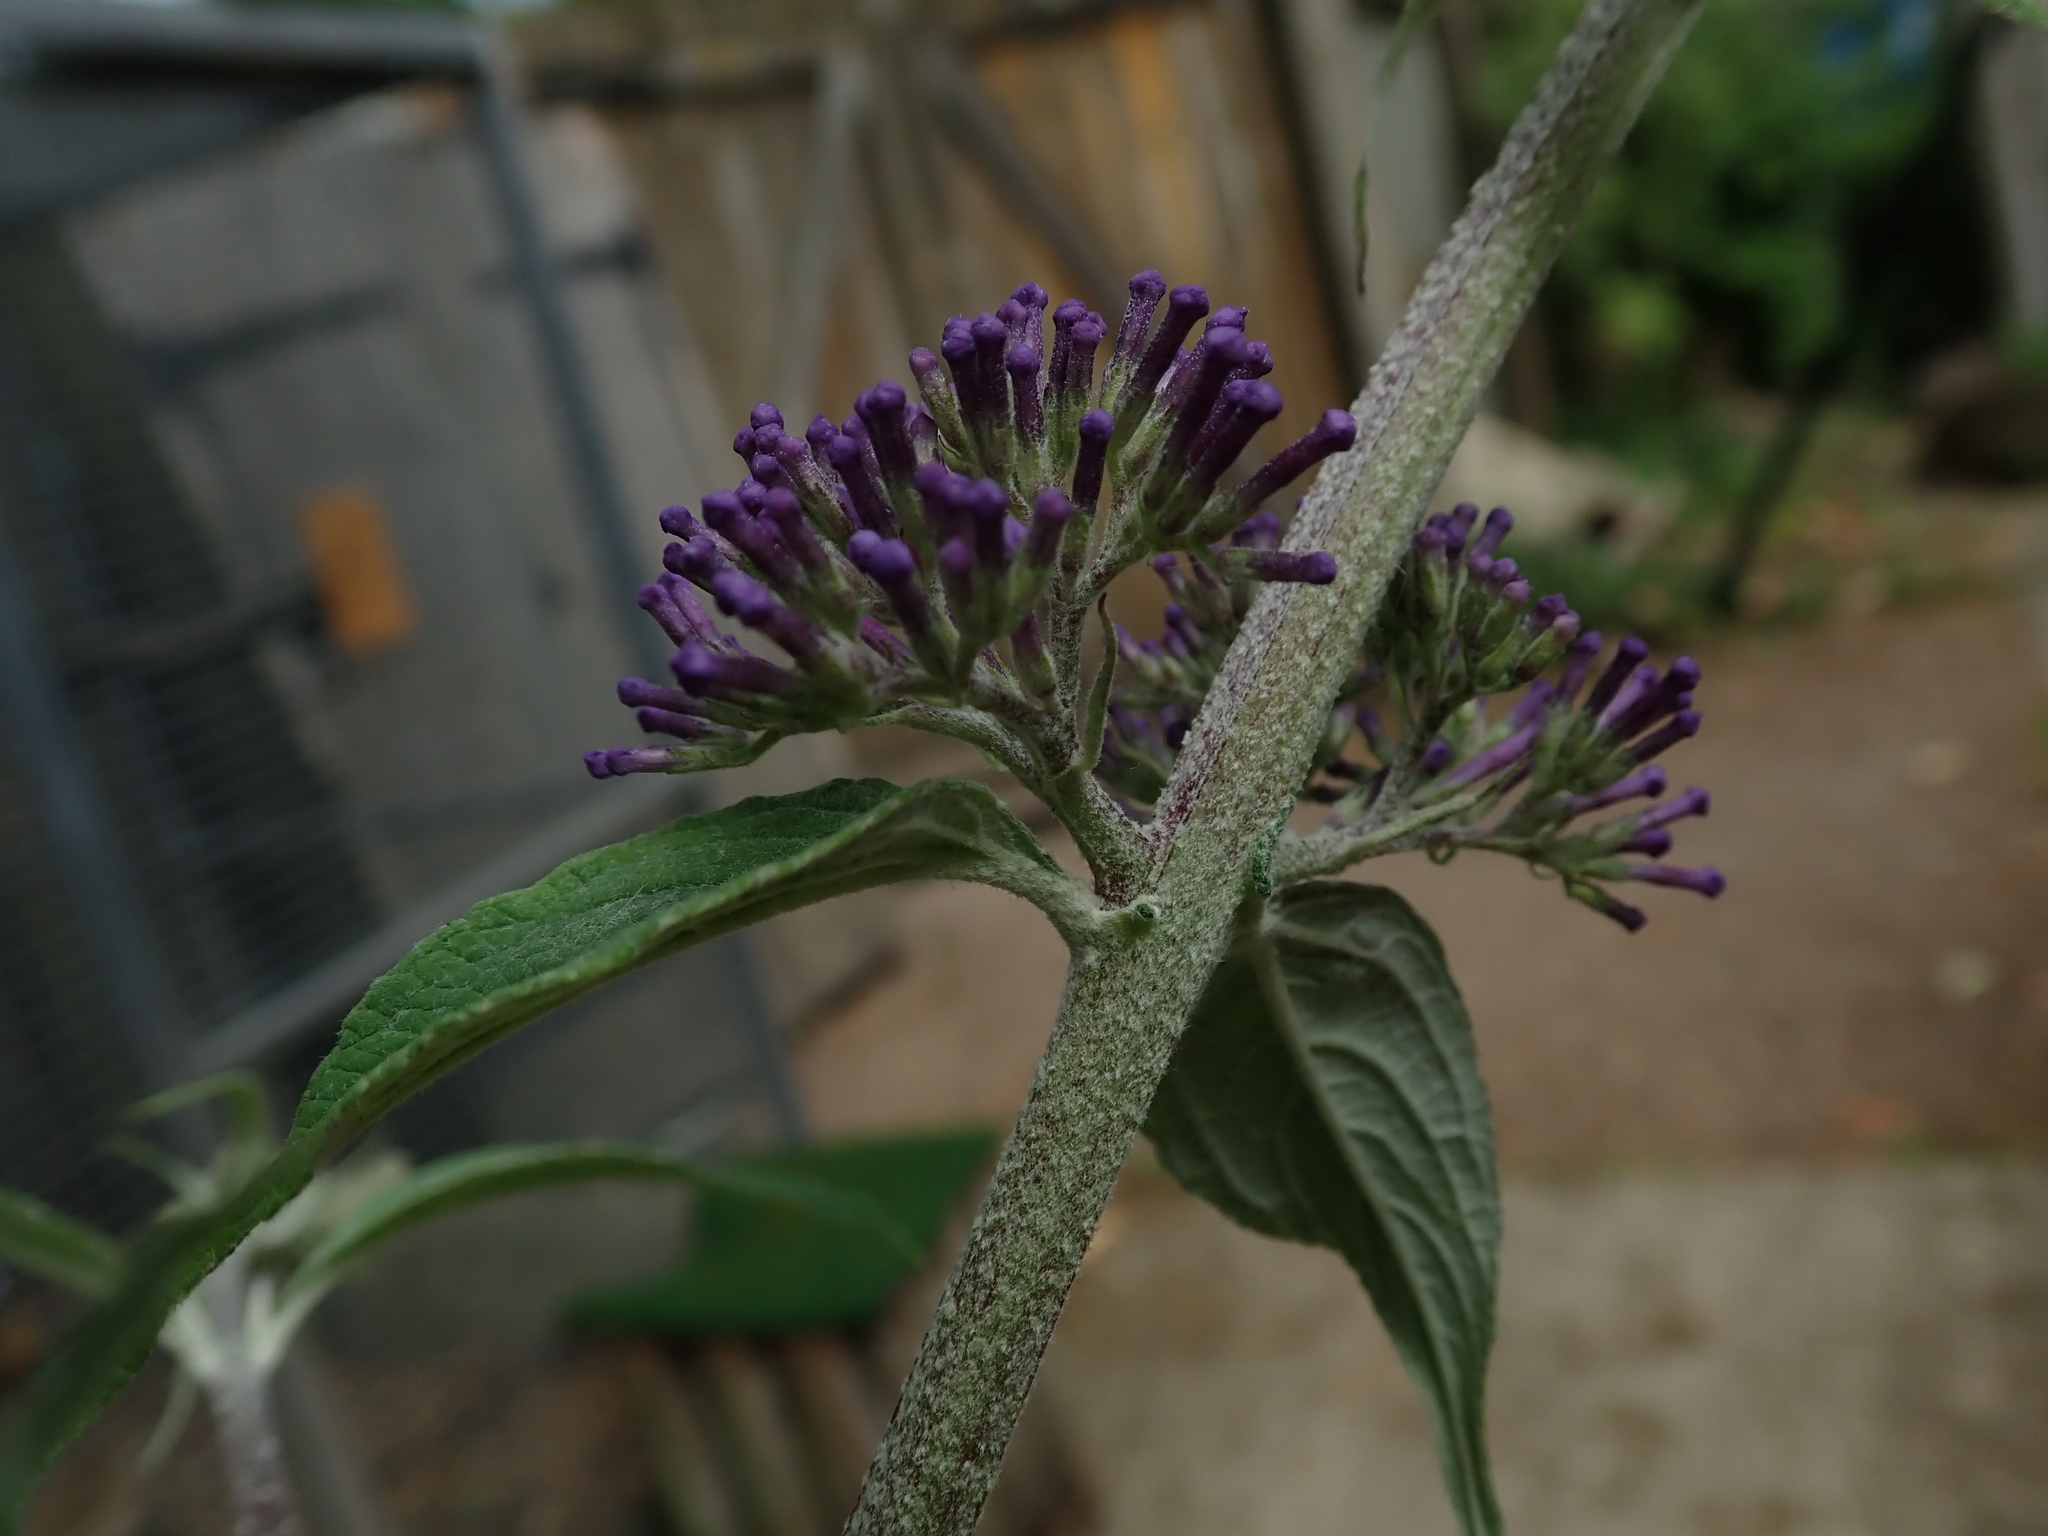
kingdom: Plantae
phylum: Tracheophyta
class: Magnoliopsida
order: Lamiales
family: Scrophulariaceae
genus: Buddleja
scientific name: Buddleja davidii
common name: Butterfly-bush
